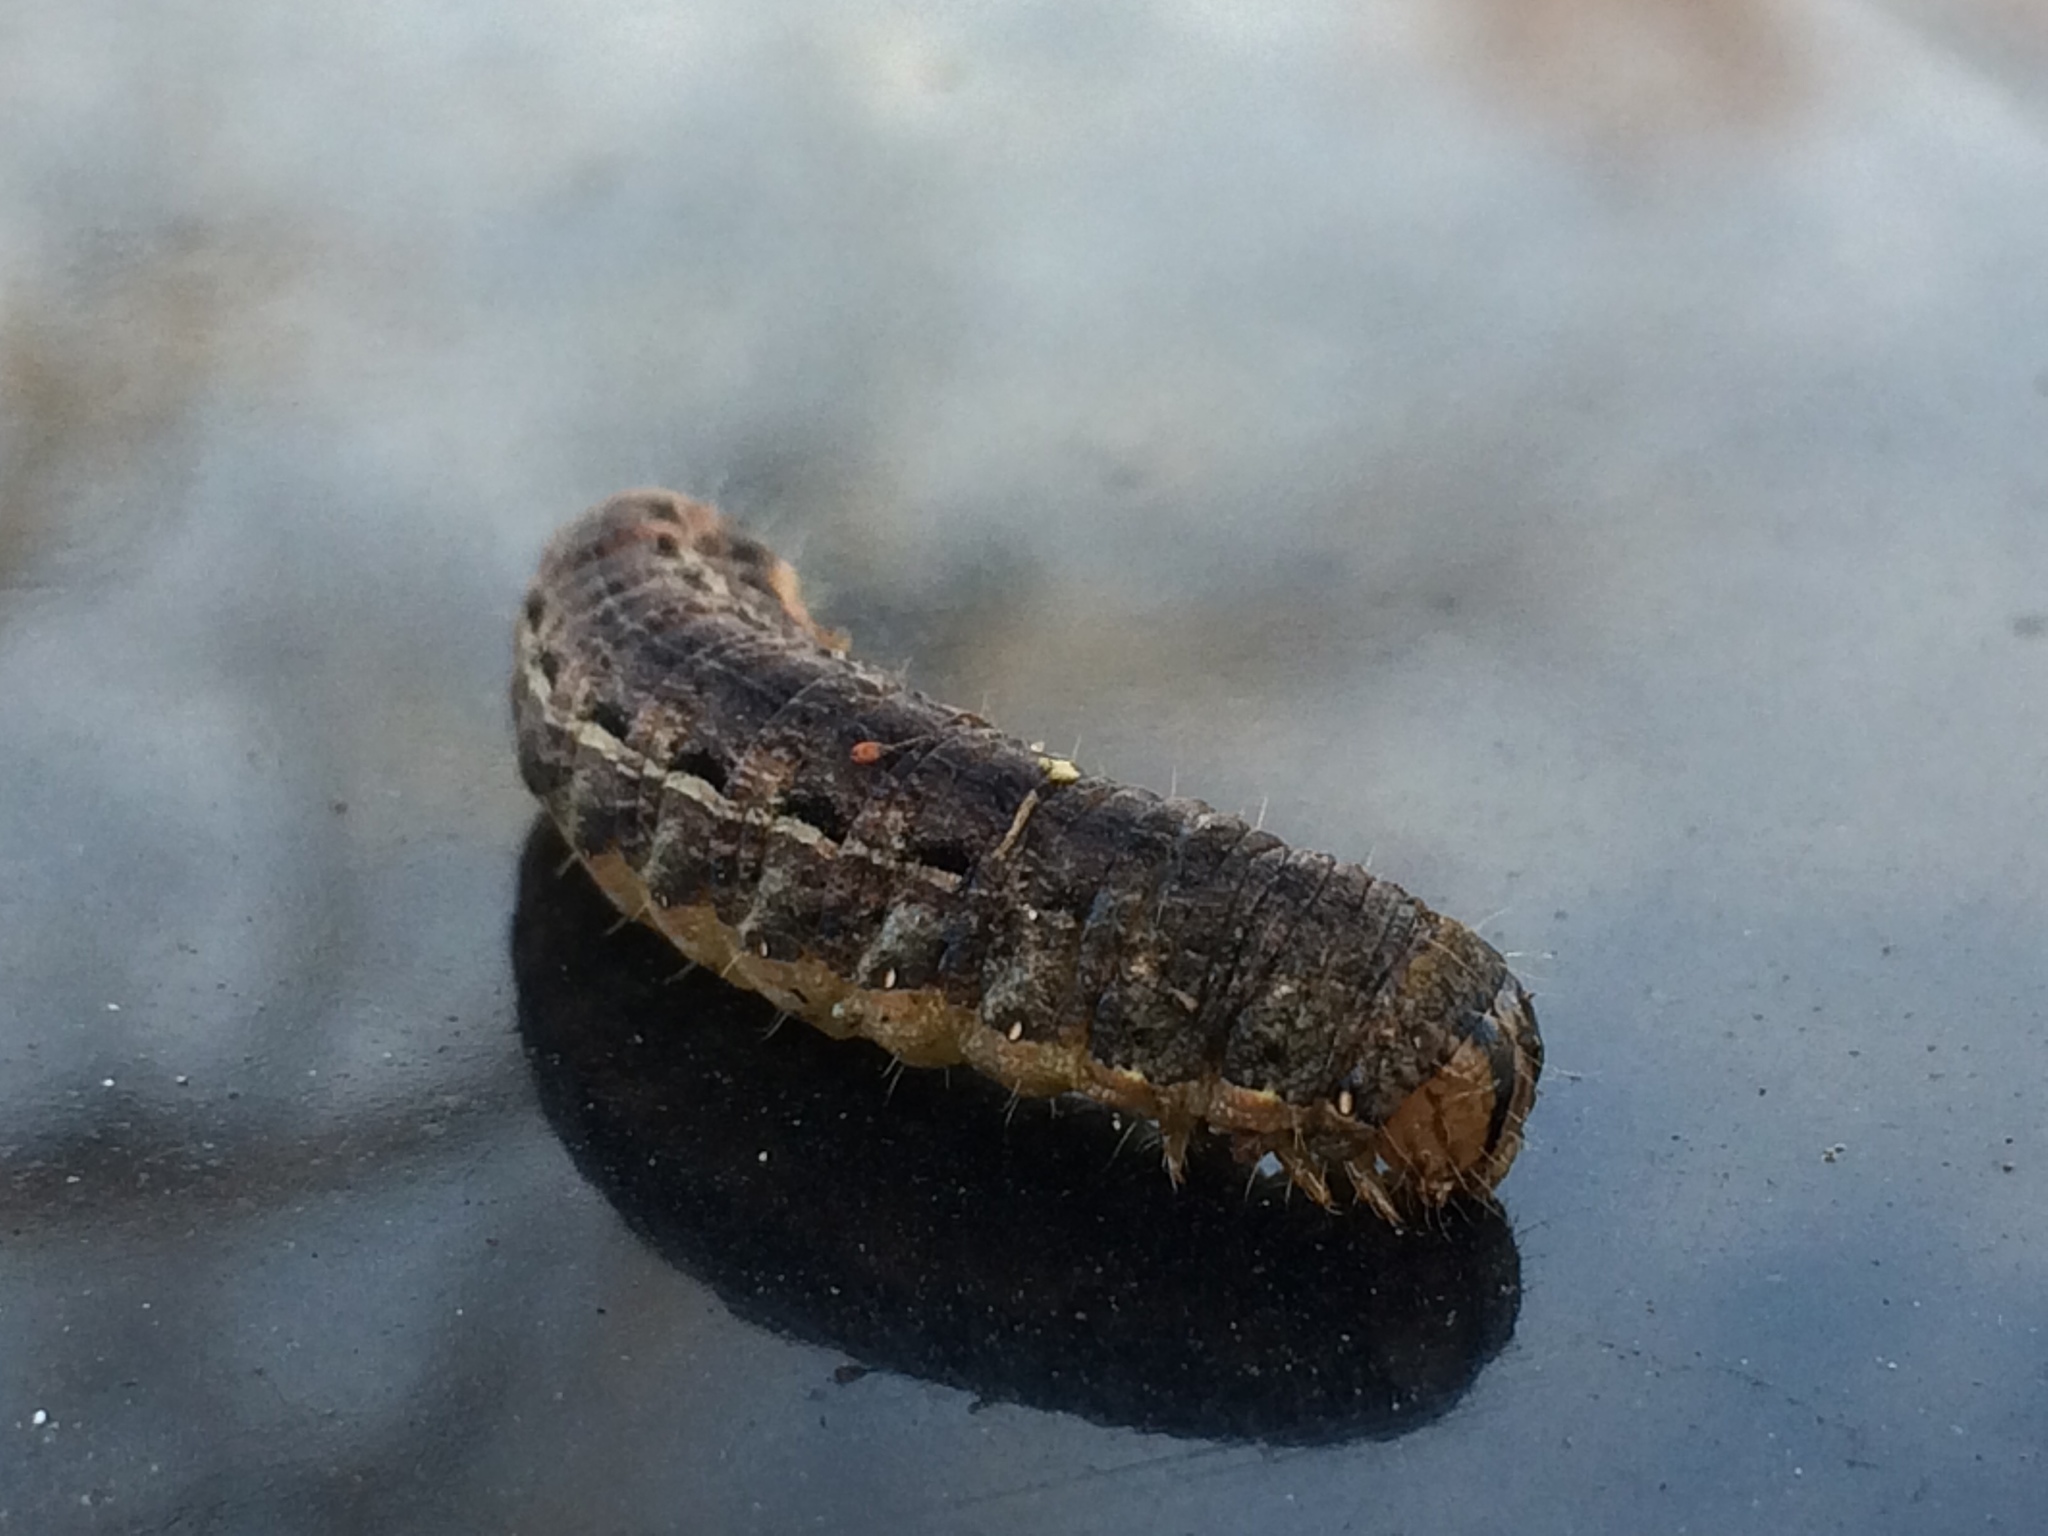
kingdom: Animalia
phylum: Arthropoda
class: Insecta
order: Lepidoptera
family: Noctuidae
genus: Noctua
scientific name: Noctua pronuba
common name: Large yellow underwing
